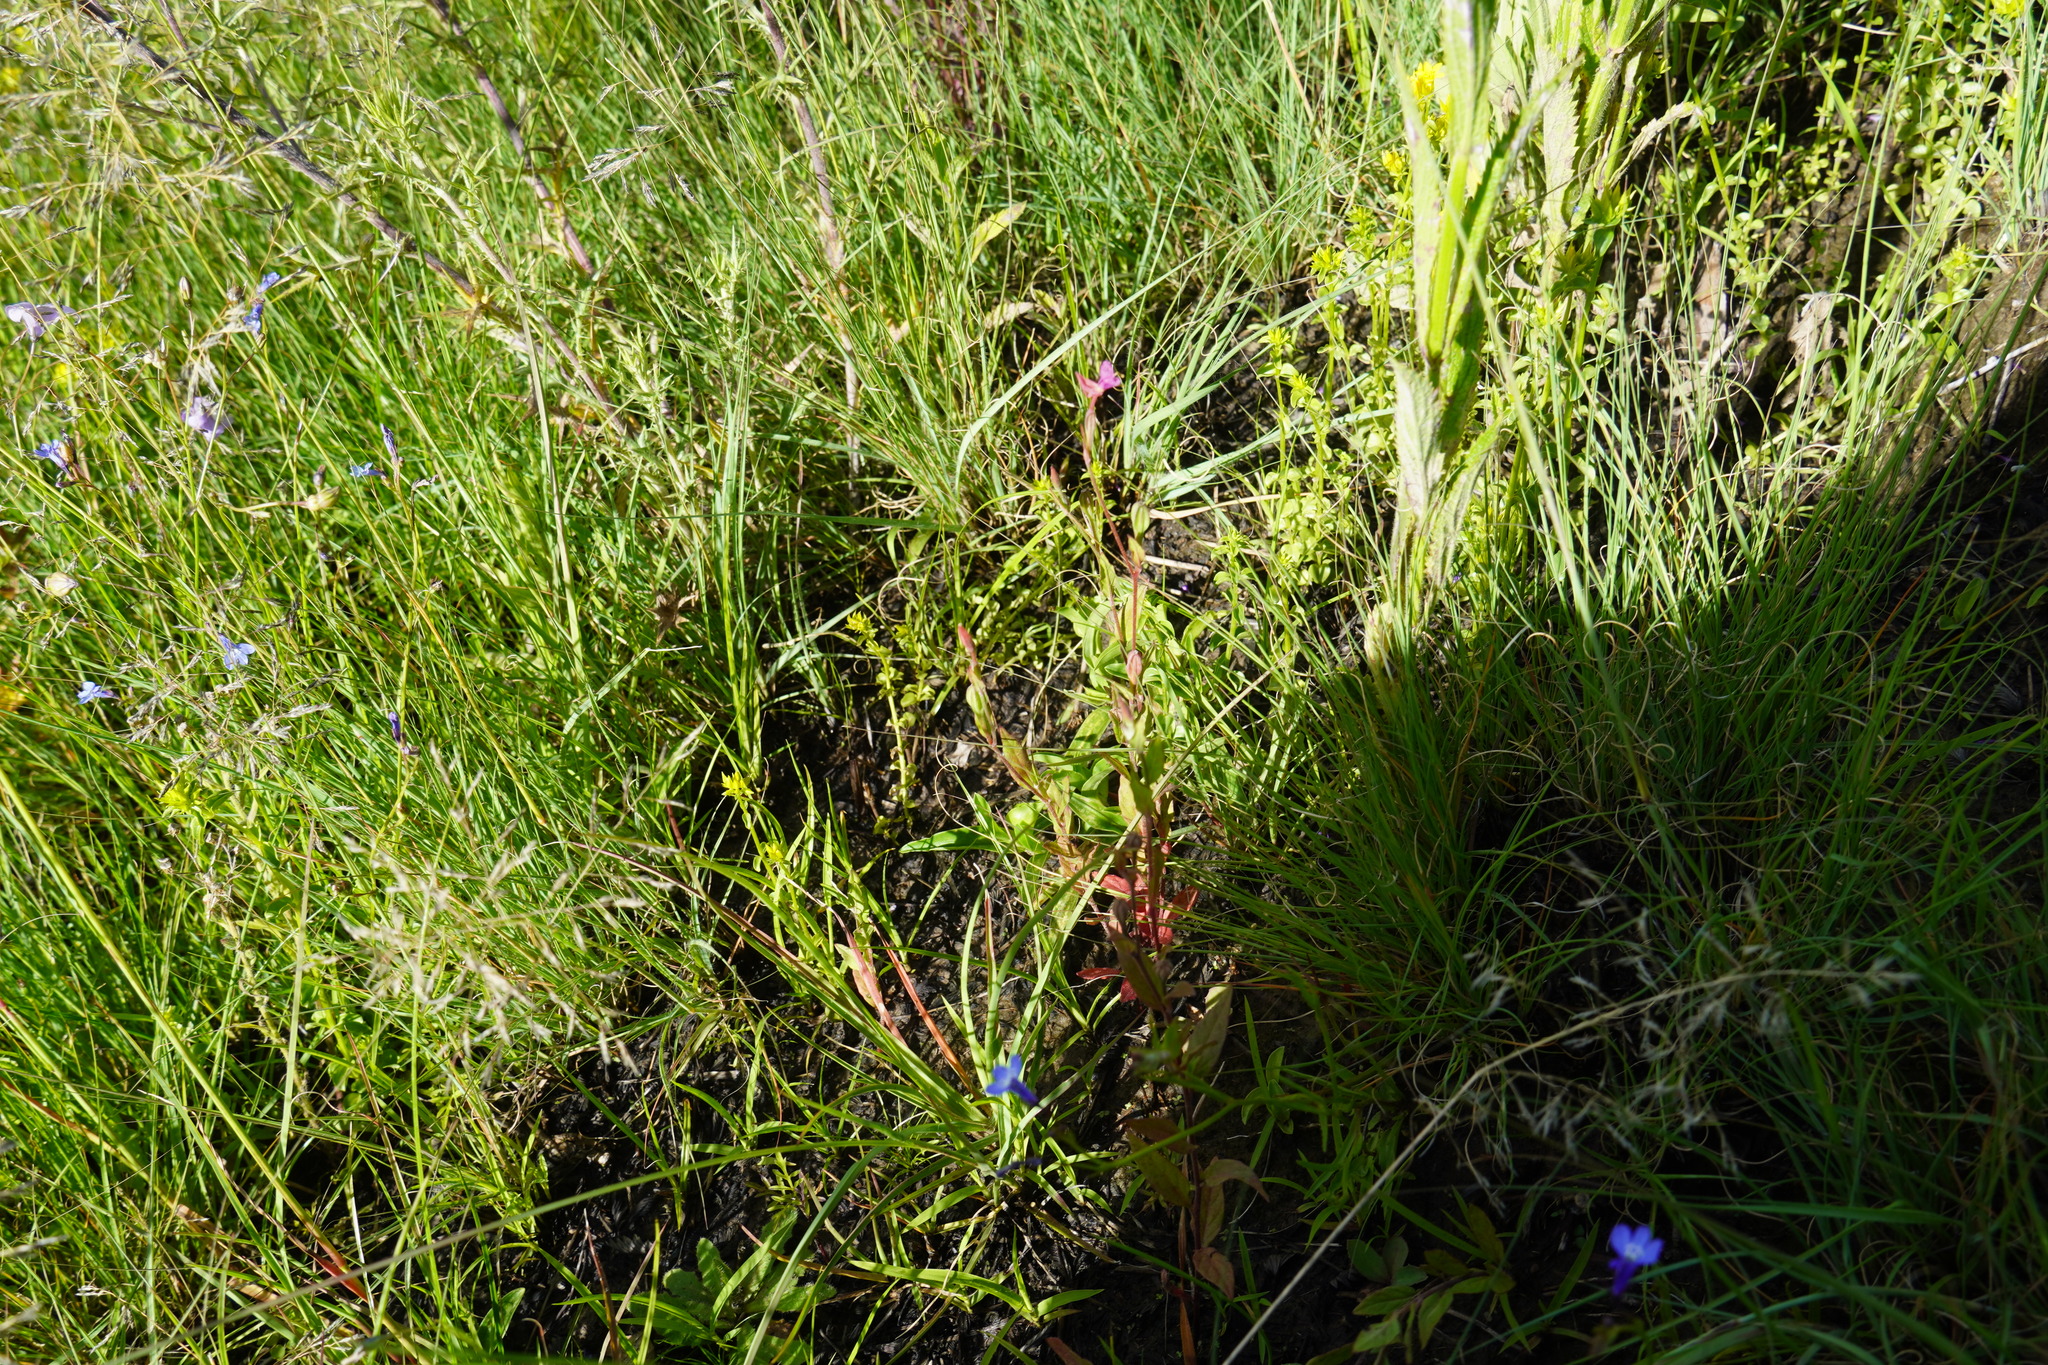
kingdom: Plantae
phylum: Tracheophyta
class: Magnoliopsida
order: Myrtales
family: Onagraceae
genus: Oenothera
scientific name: Oenothera rosea
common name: Rosy evening-primrose
